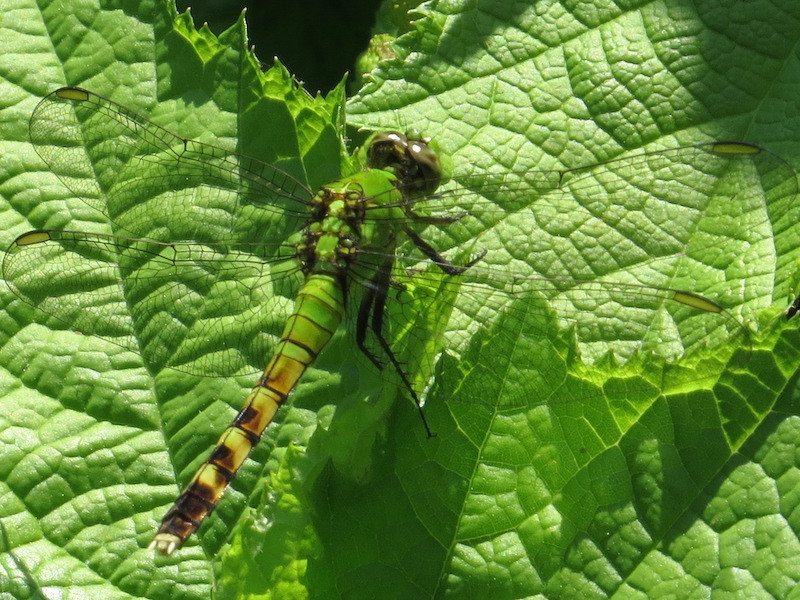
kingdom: Animalia
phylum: Arthropoda
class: Insecta
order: Odonata
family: Libellulidae
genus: Erythemis
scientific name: Erythemis simplicicollis
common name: Eastern pondhawk
